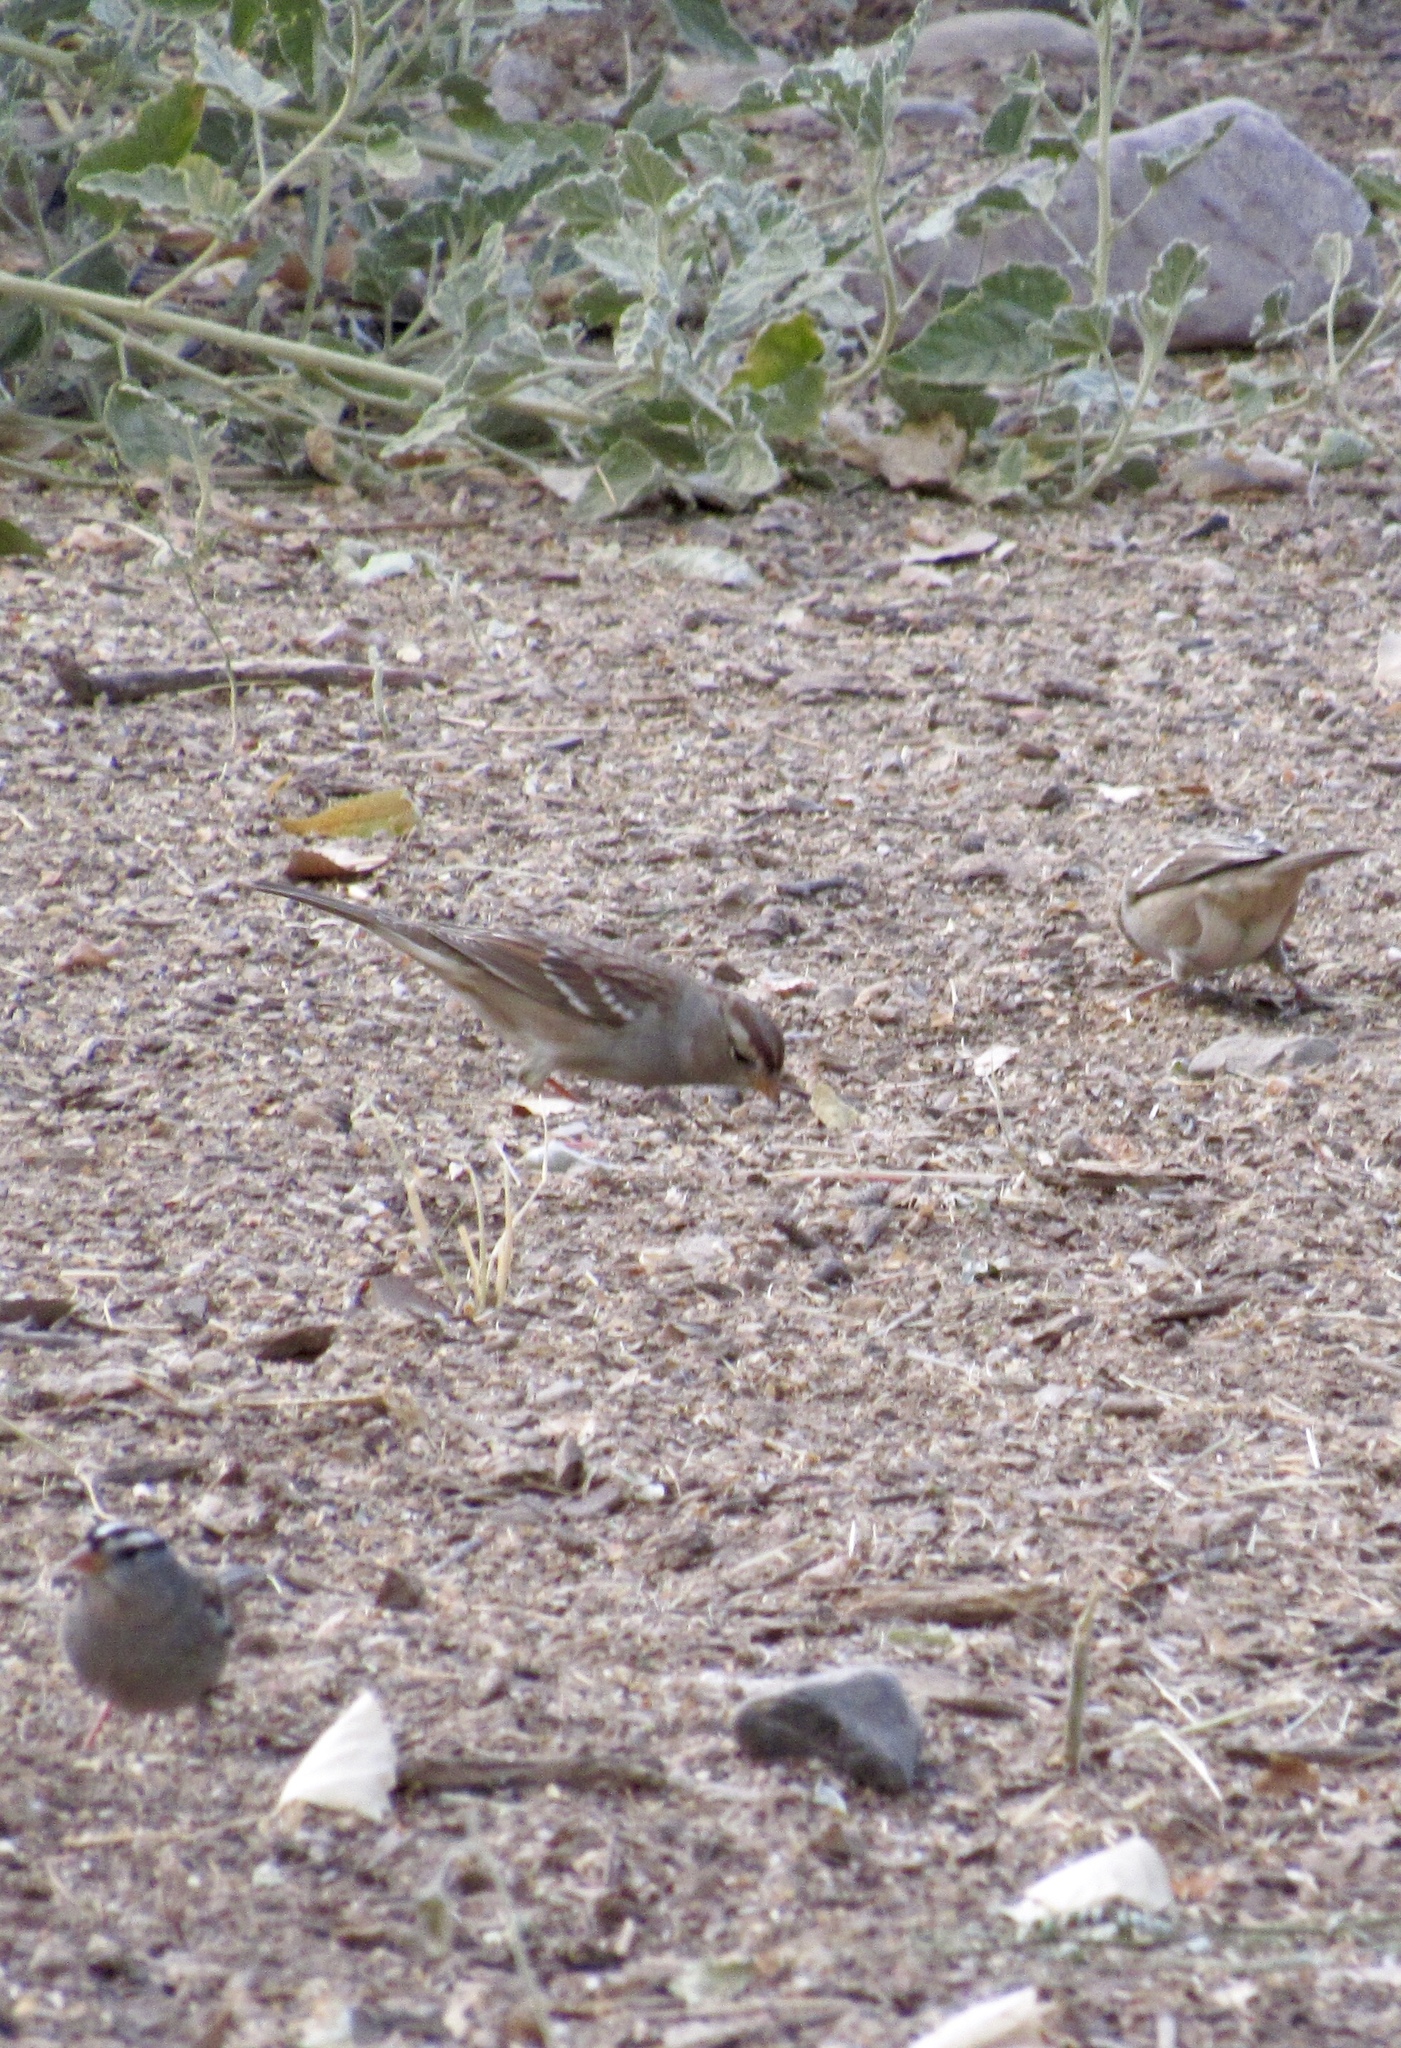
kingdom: Animalia
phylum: Chordata
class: Aves
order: Passeriformes
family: Passerellidae
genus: Zonotrichia
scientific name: Zonotrichia leucophrys
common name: White-crowned sparrow
